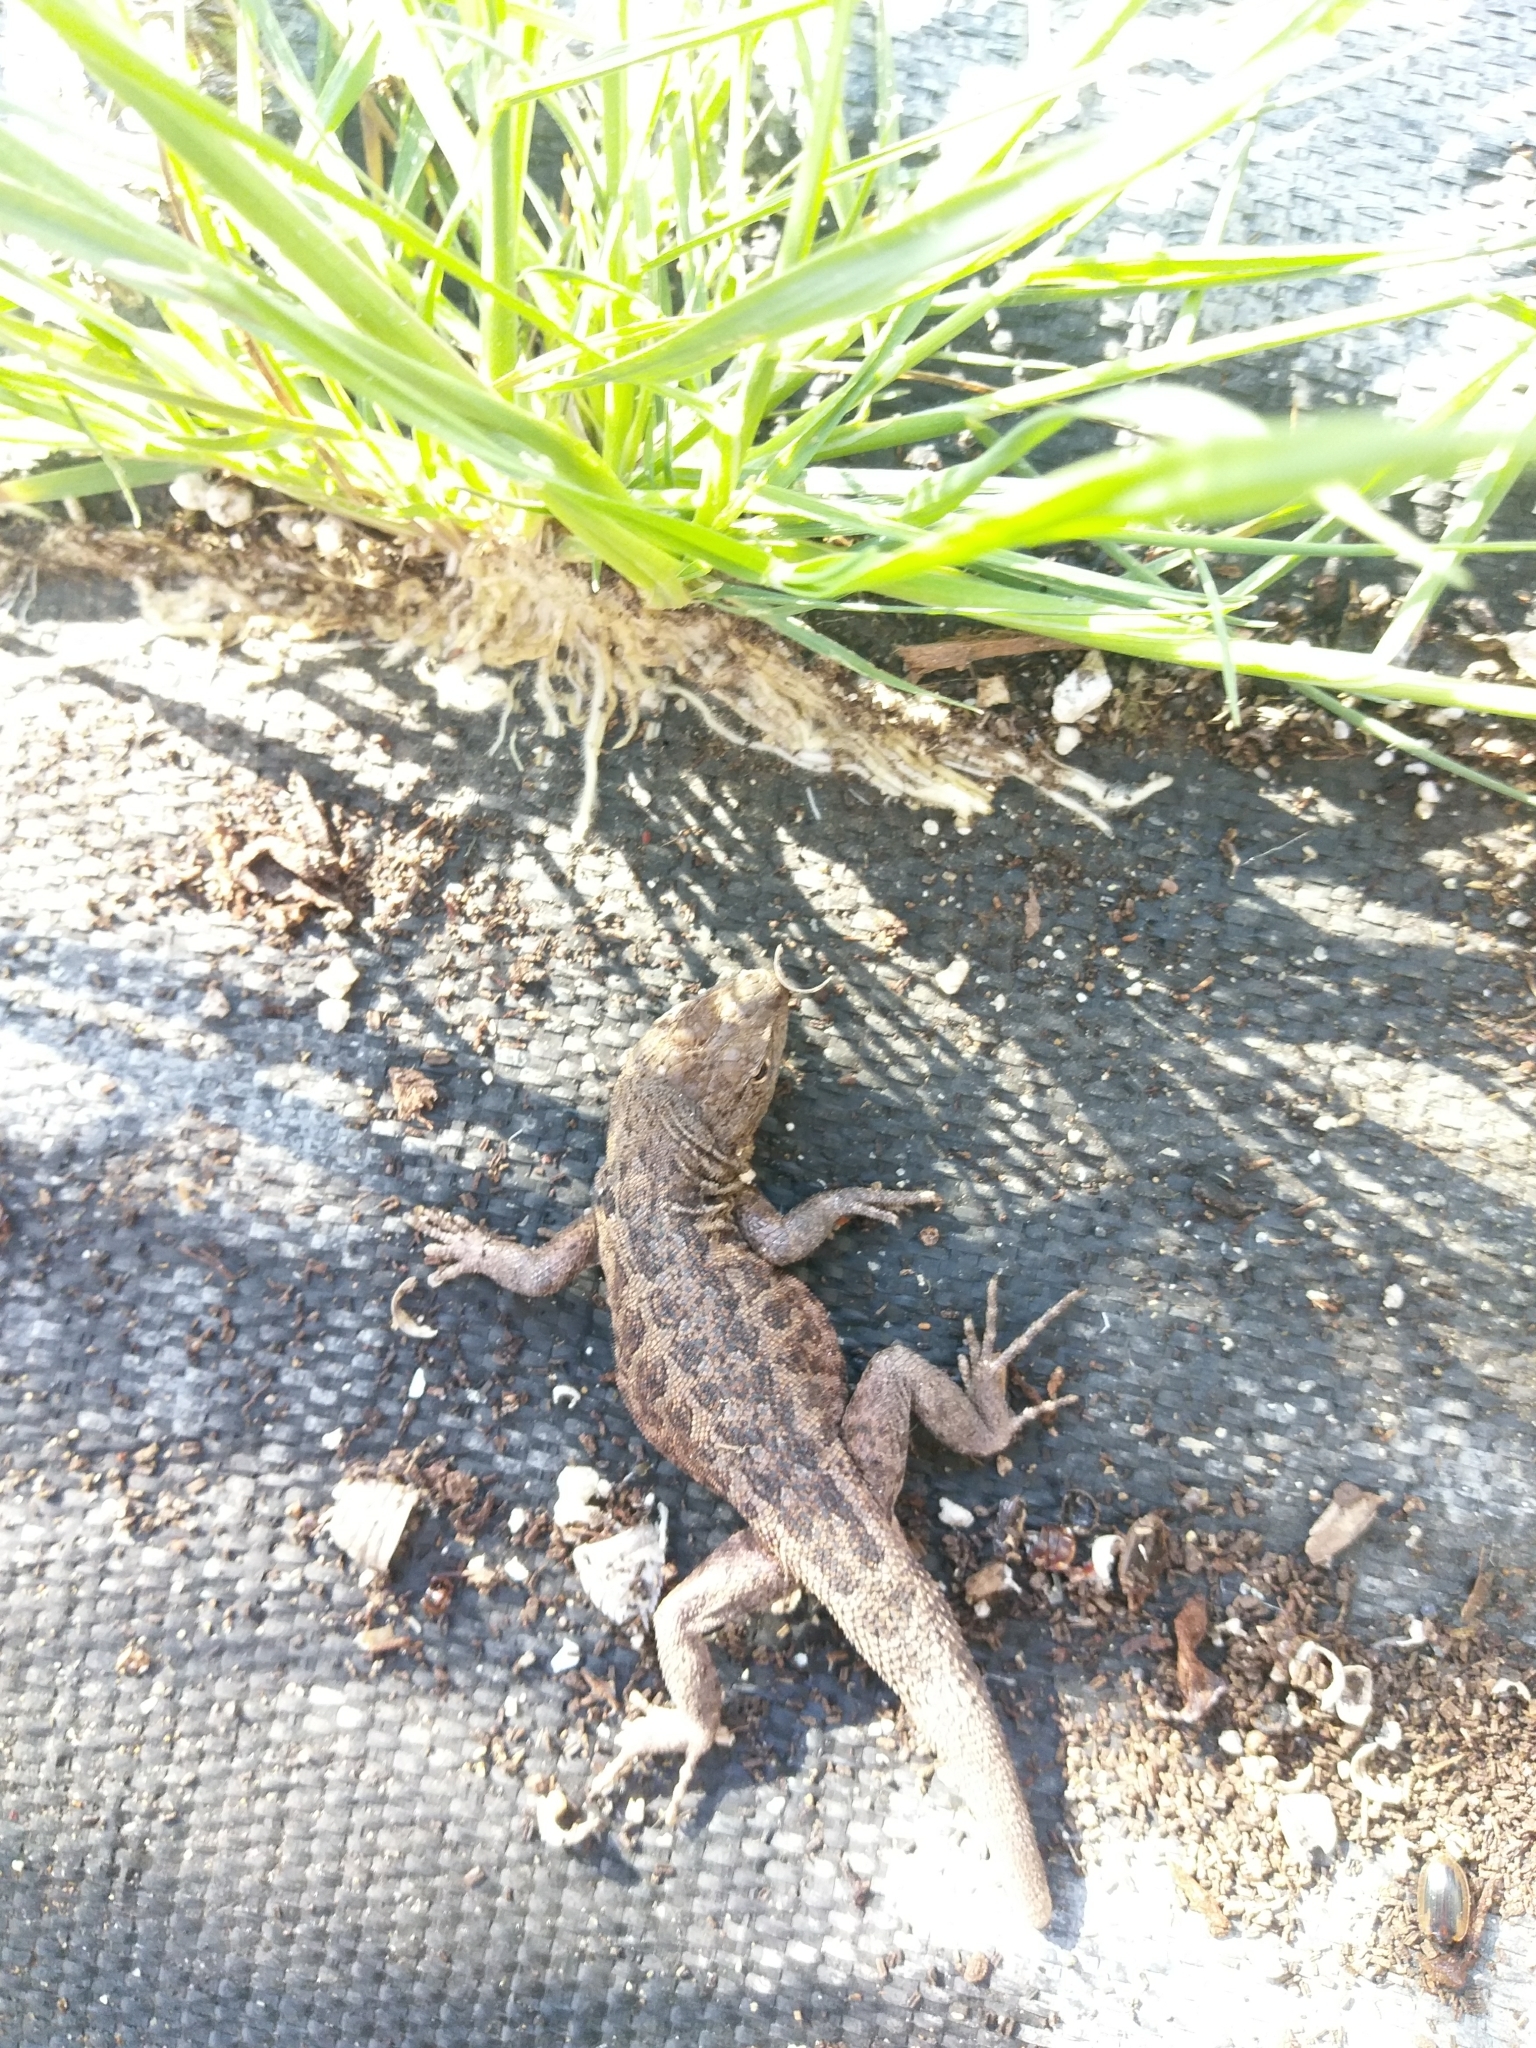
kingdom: Animalia
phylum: Chordata
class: Squamata
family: Phrynosomatidae
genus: Uta
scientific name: Uta stansburiana
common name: Side-blotched lizard
